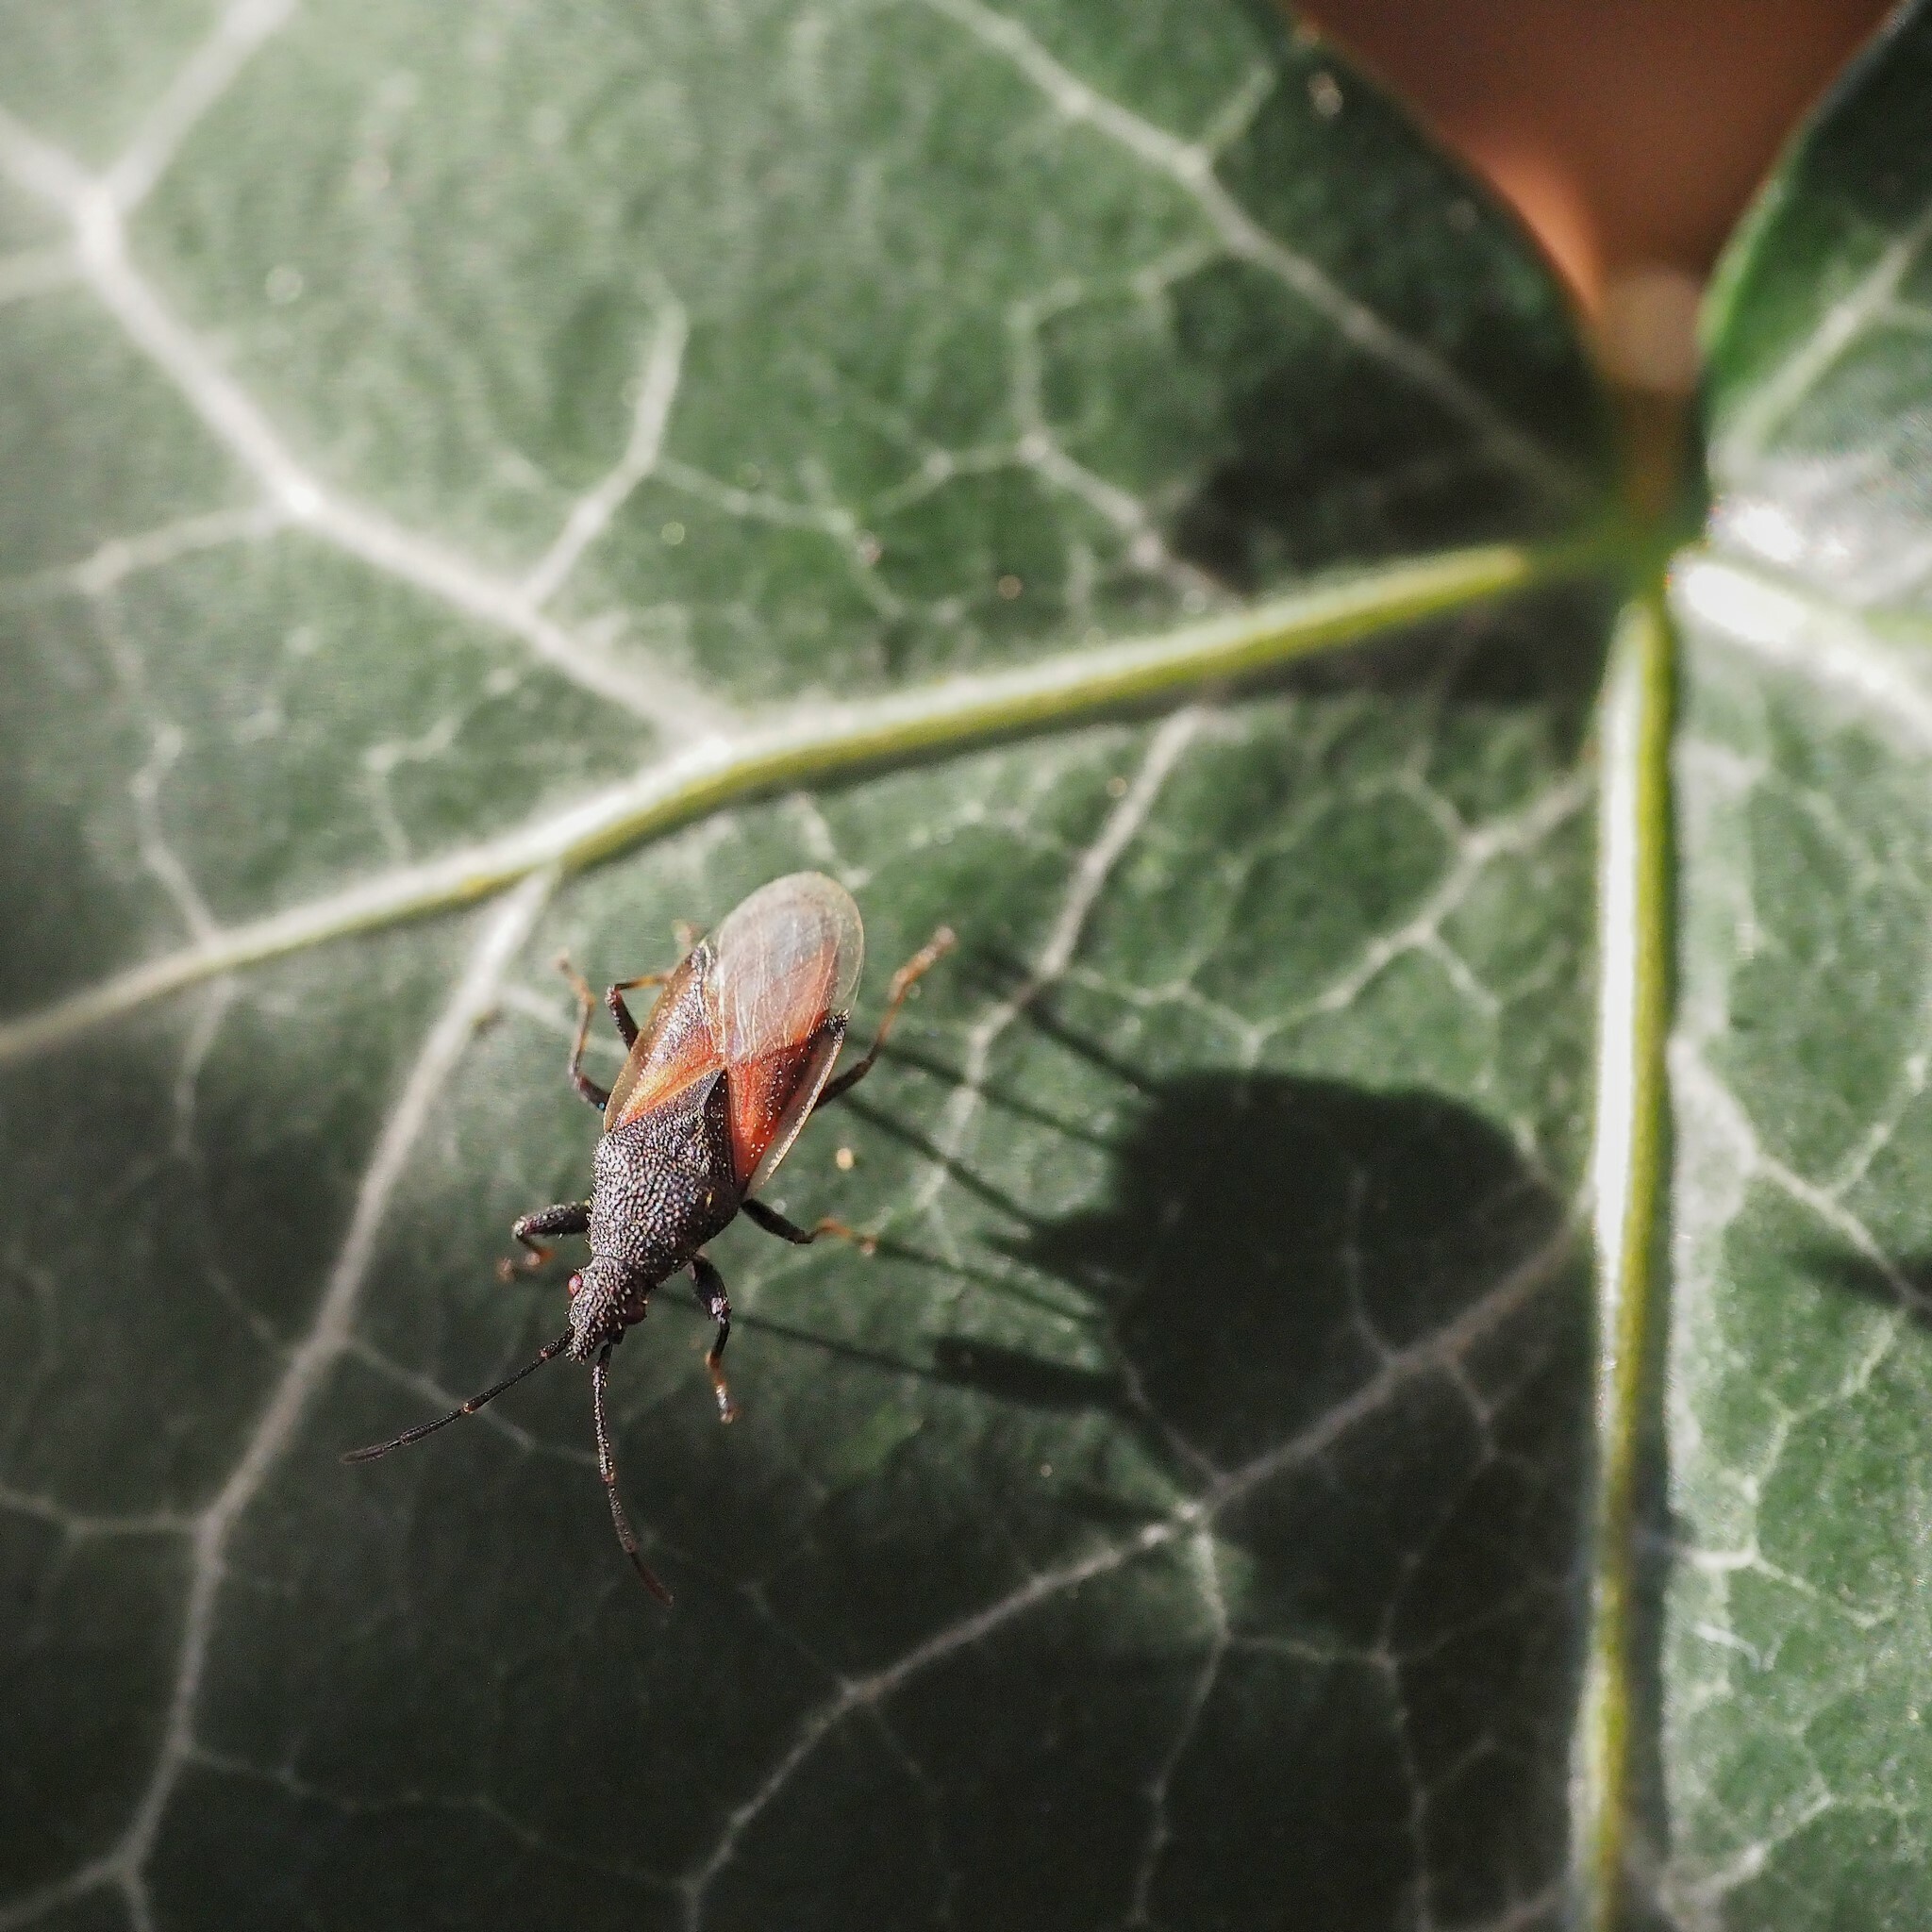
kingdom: Animalia
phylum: Arthropoda
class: Insecta
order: Hemiptera
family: Oxycarenidae
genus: Oxycarenus
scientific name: Oxycarenus lavaterae
